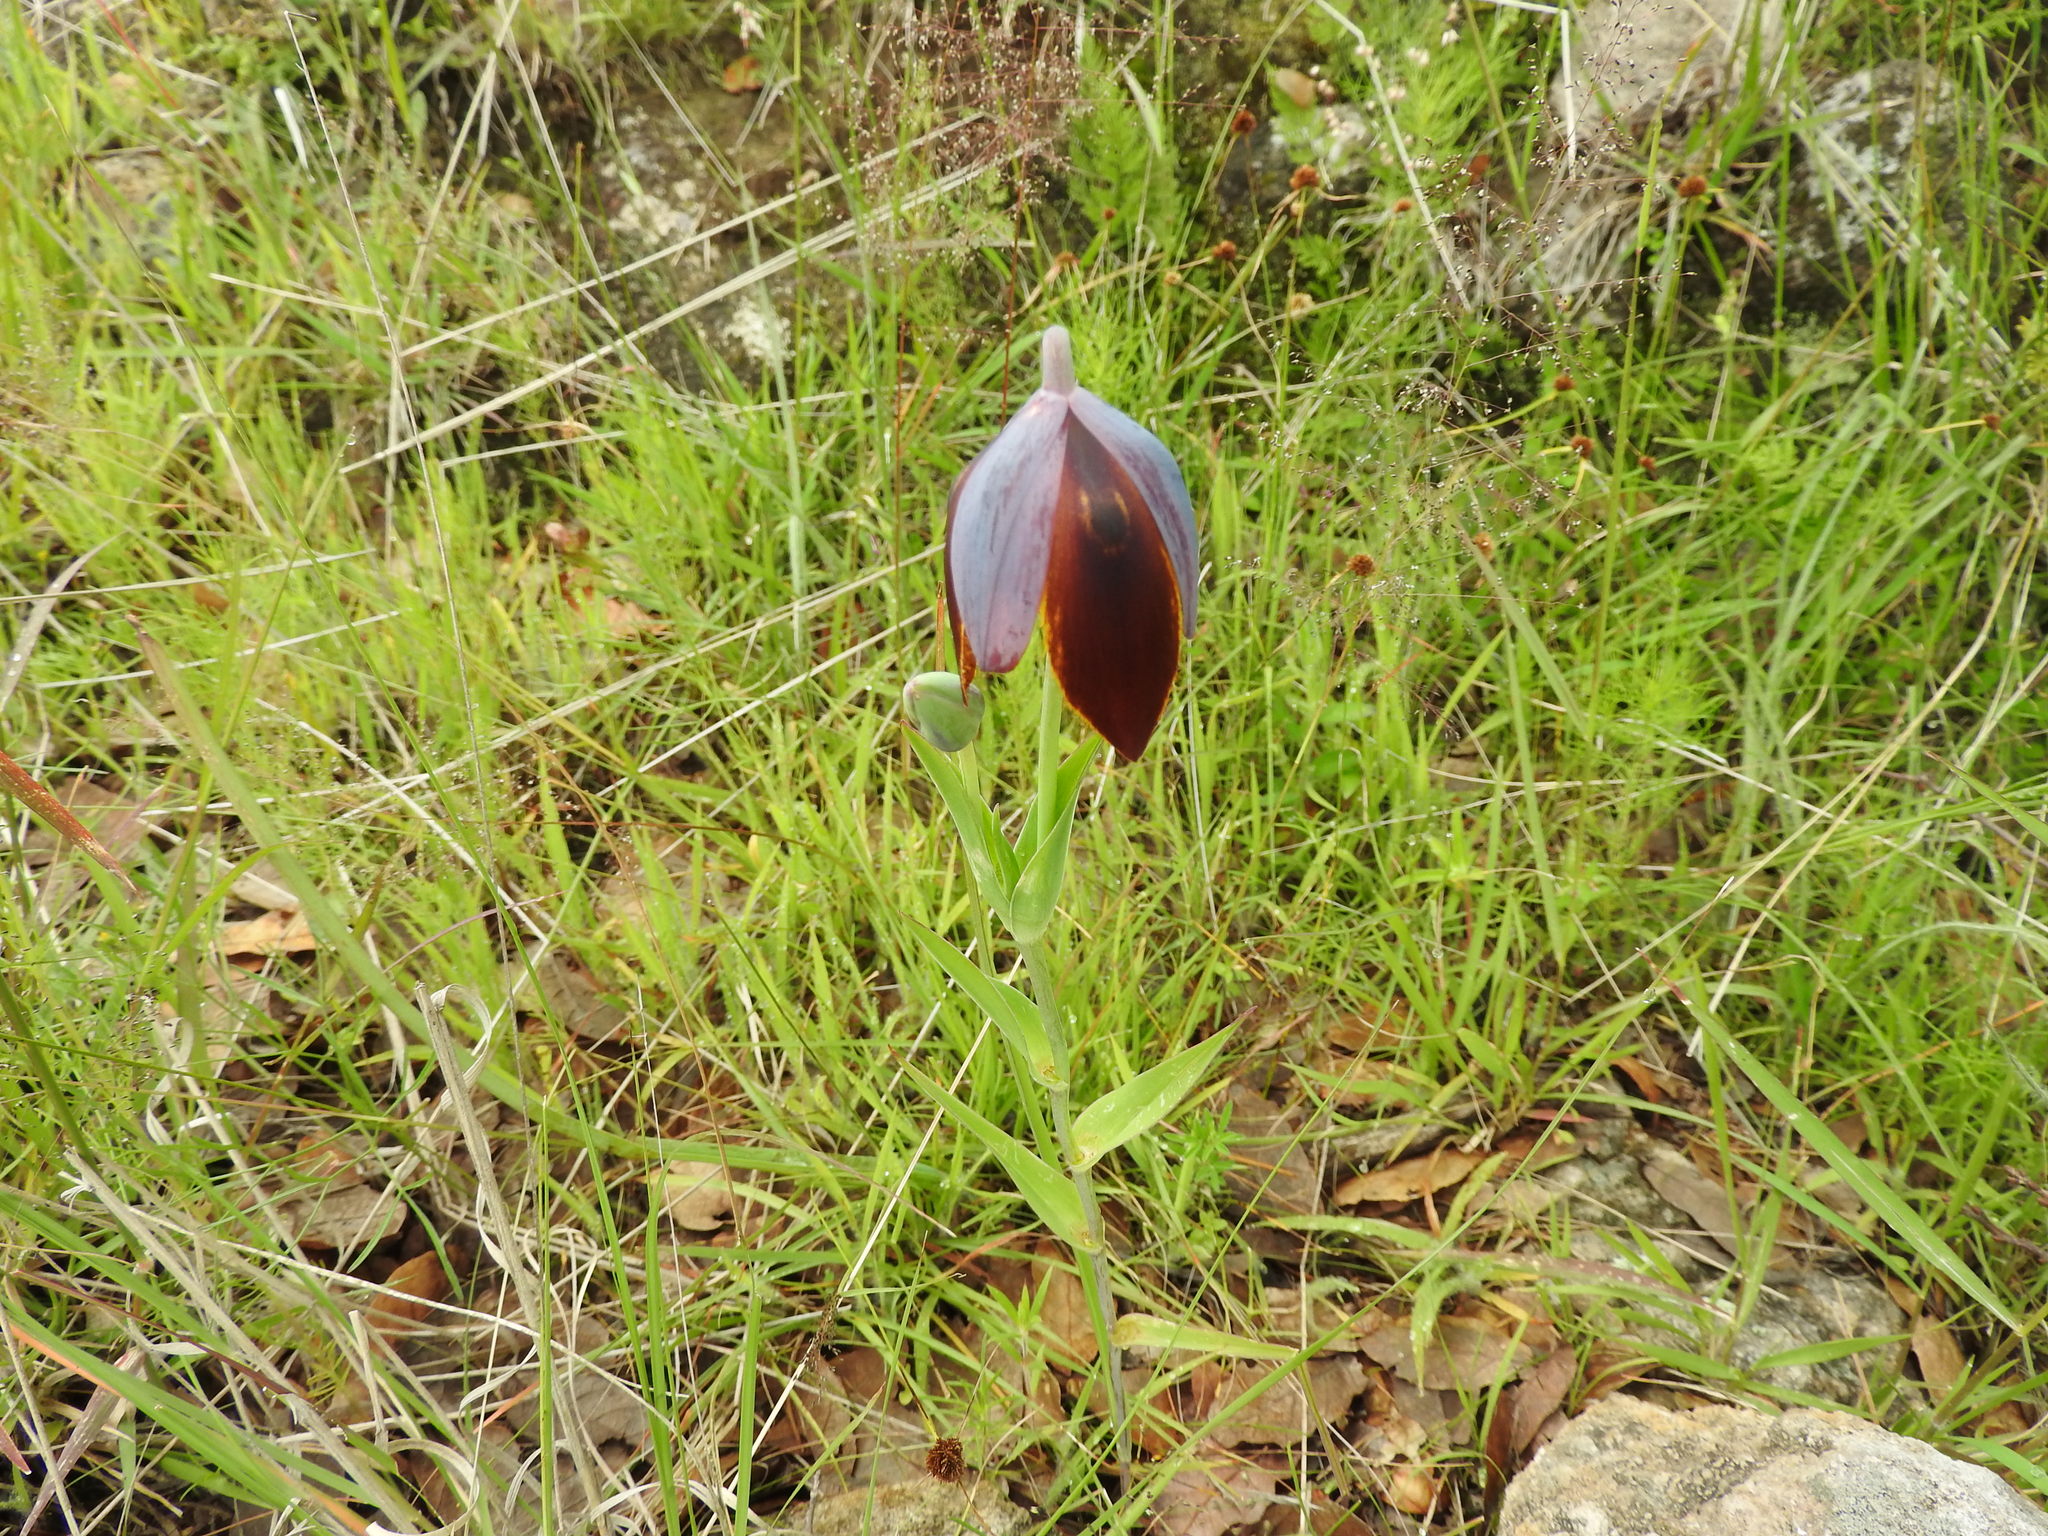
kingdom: Plantae
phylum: Tracheophyta
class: Liliopsida
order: Liliales
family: Liliaceae
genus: Calochortus
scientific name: Calochortus purpureus
